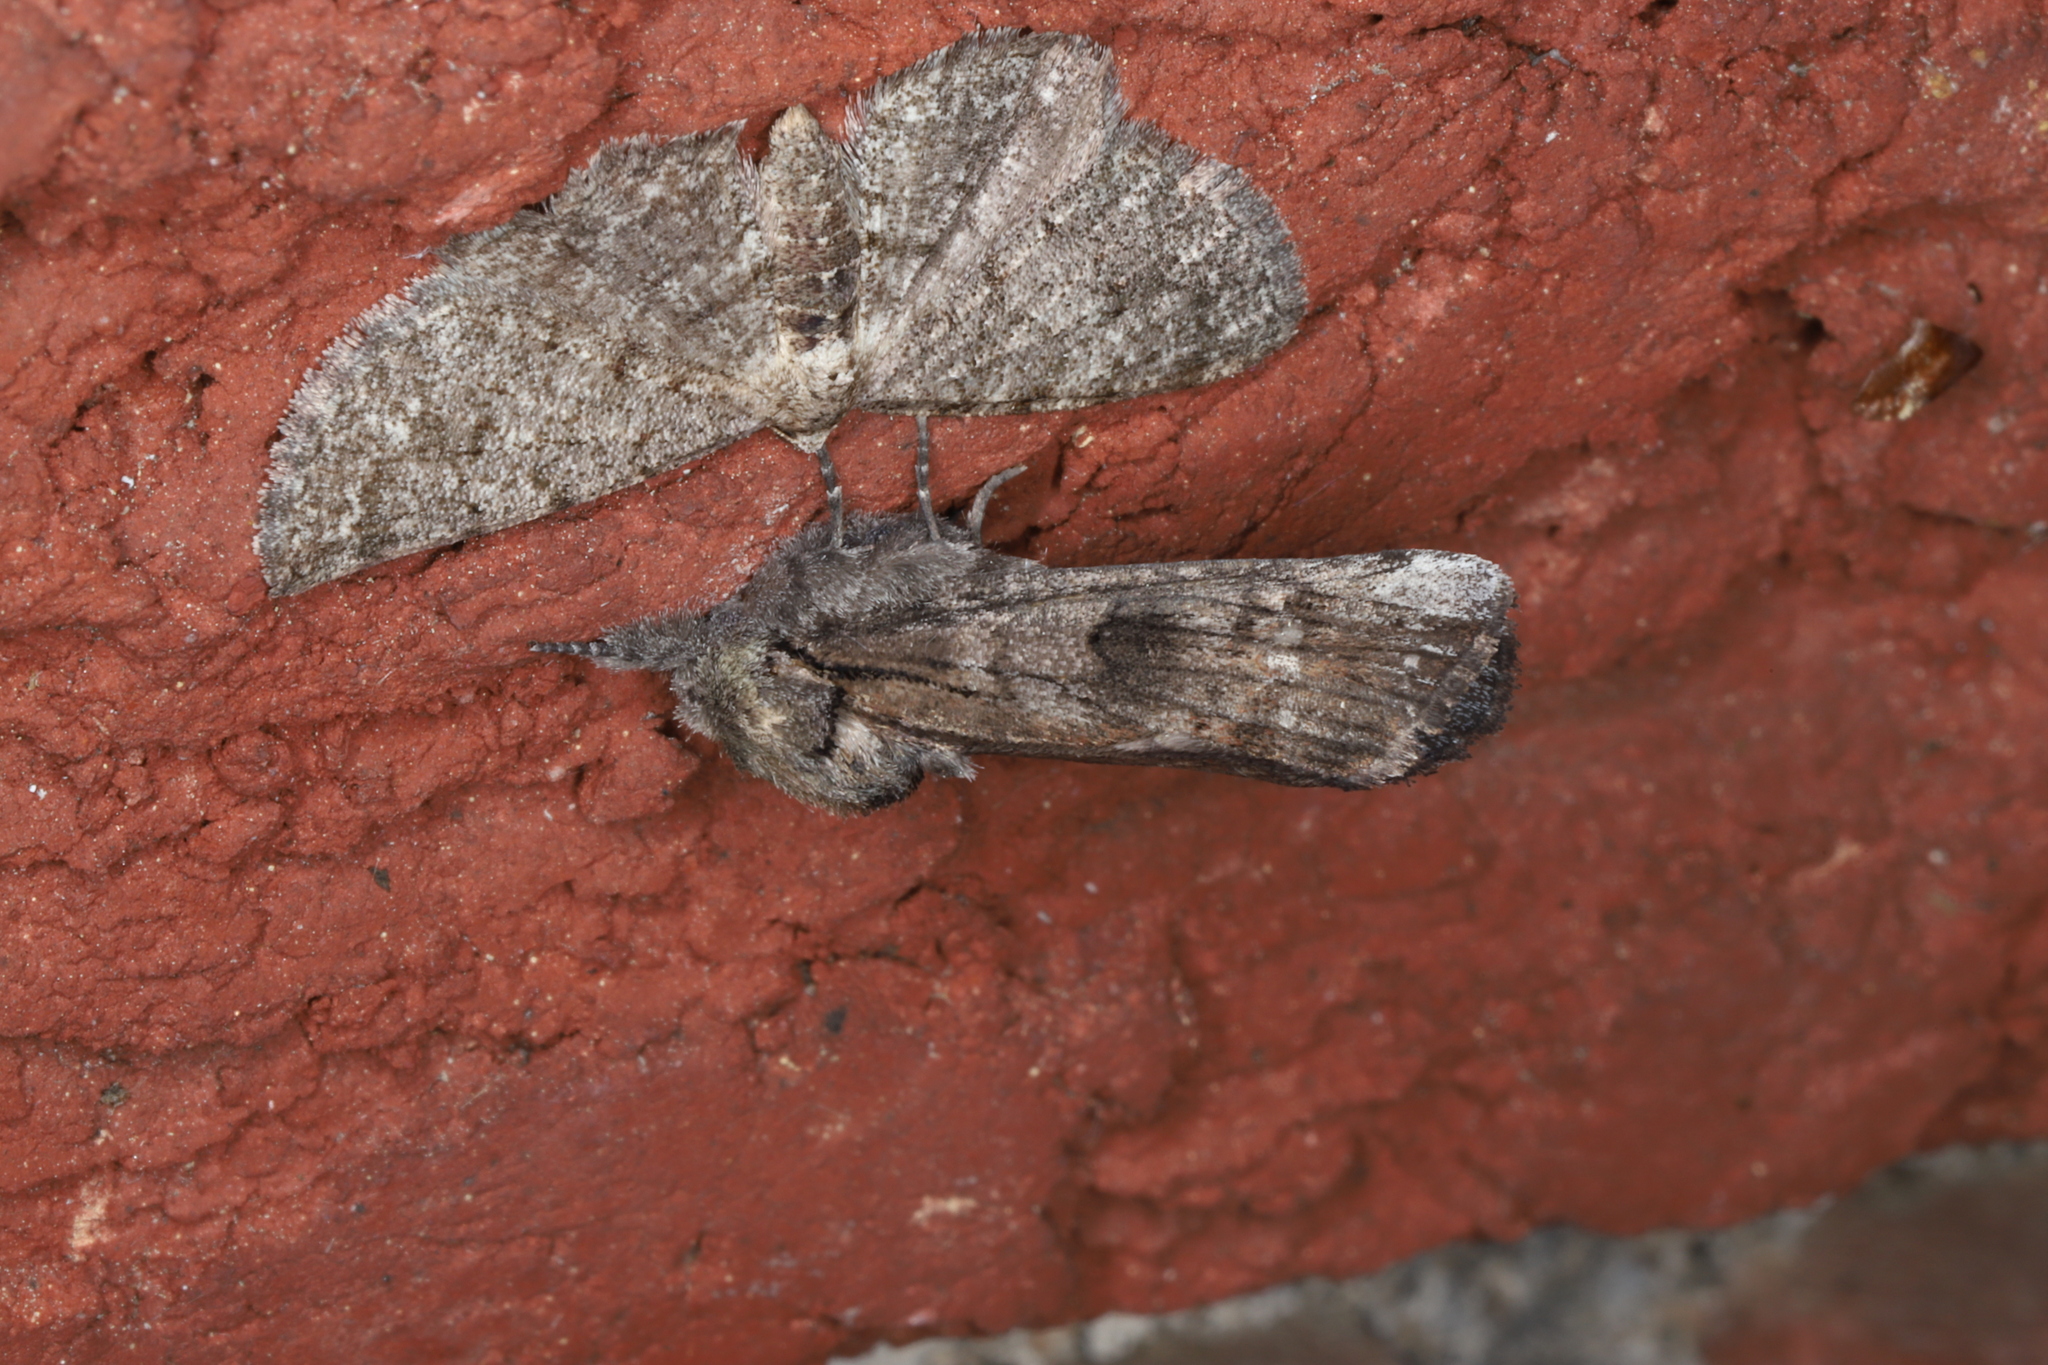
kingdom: Animalia
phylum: Arthropoda
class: Insecta
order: Lepidoptera
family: Notodontidae
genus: Schizura
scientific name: Schizura
